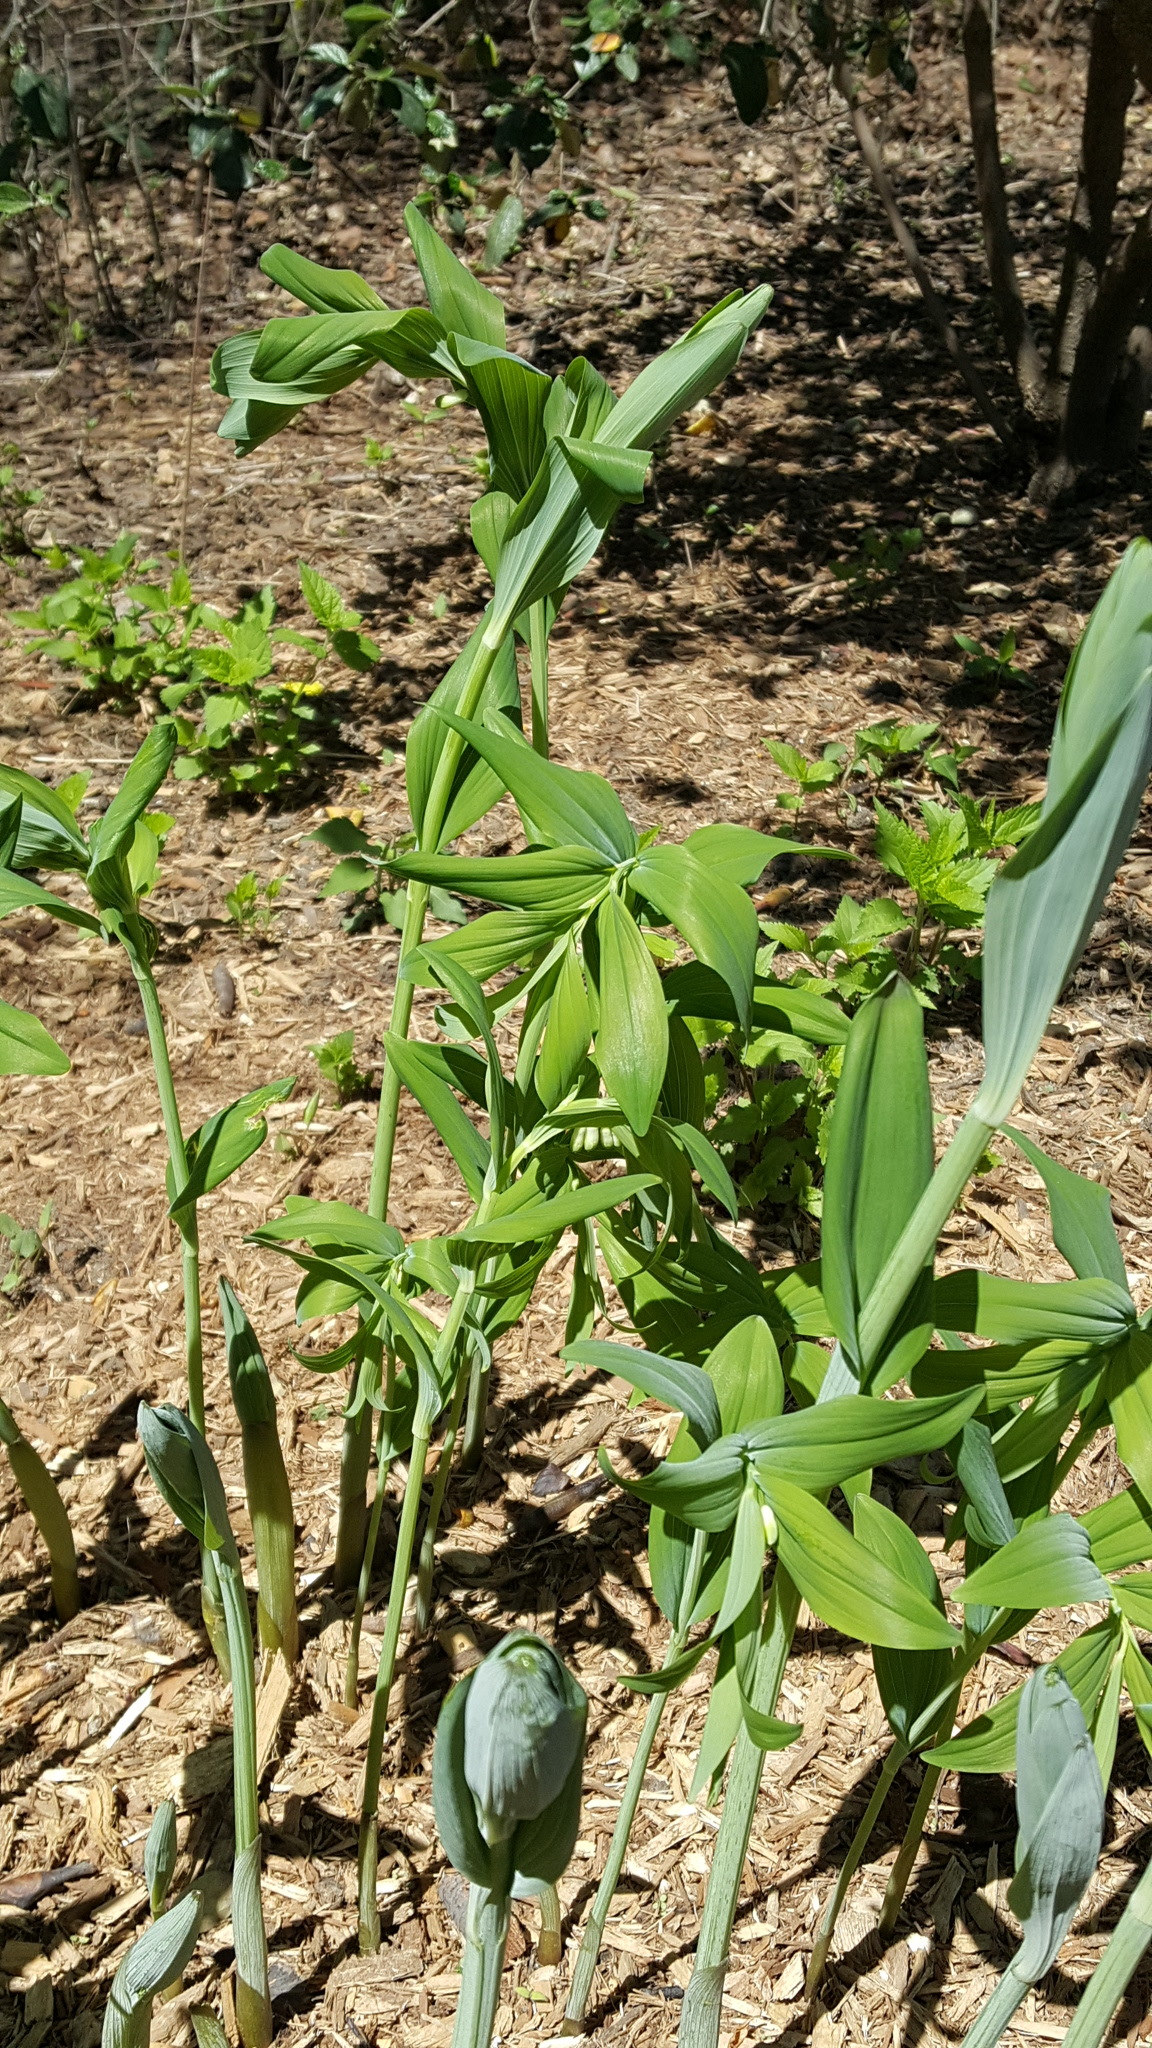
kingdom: Plantae
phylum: Tracheophyta
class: Liliopsida
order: Asparagales
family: Asparagaceae
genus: Polygonatum
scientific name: Polygonatum hybridum
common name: Garden solomon's-seal
